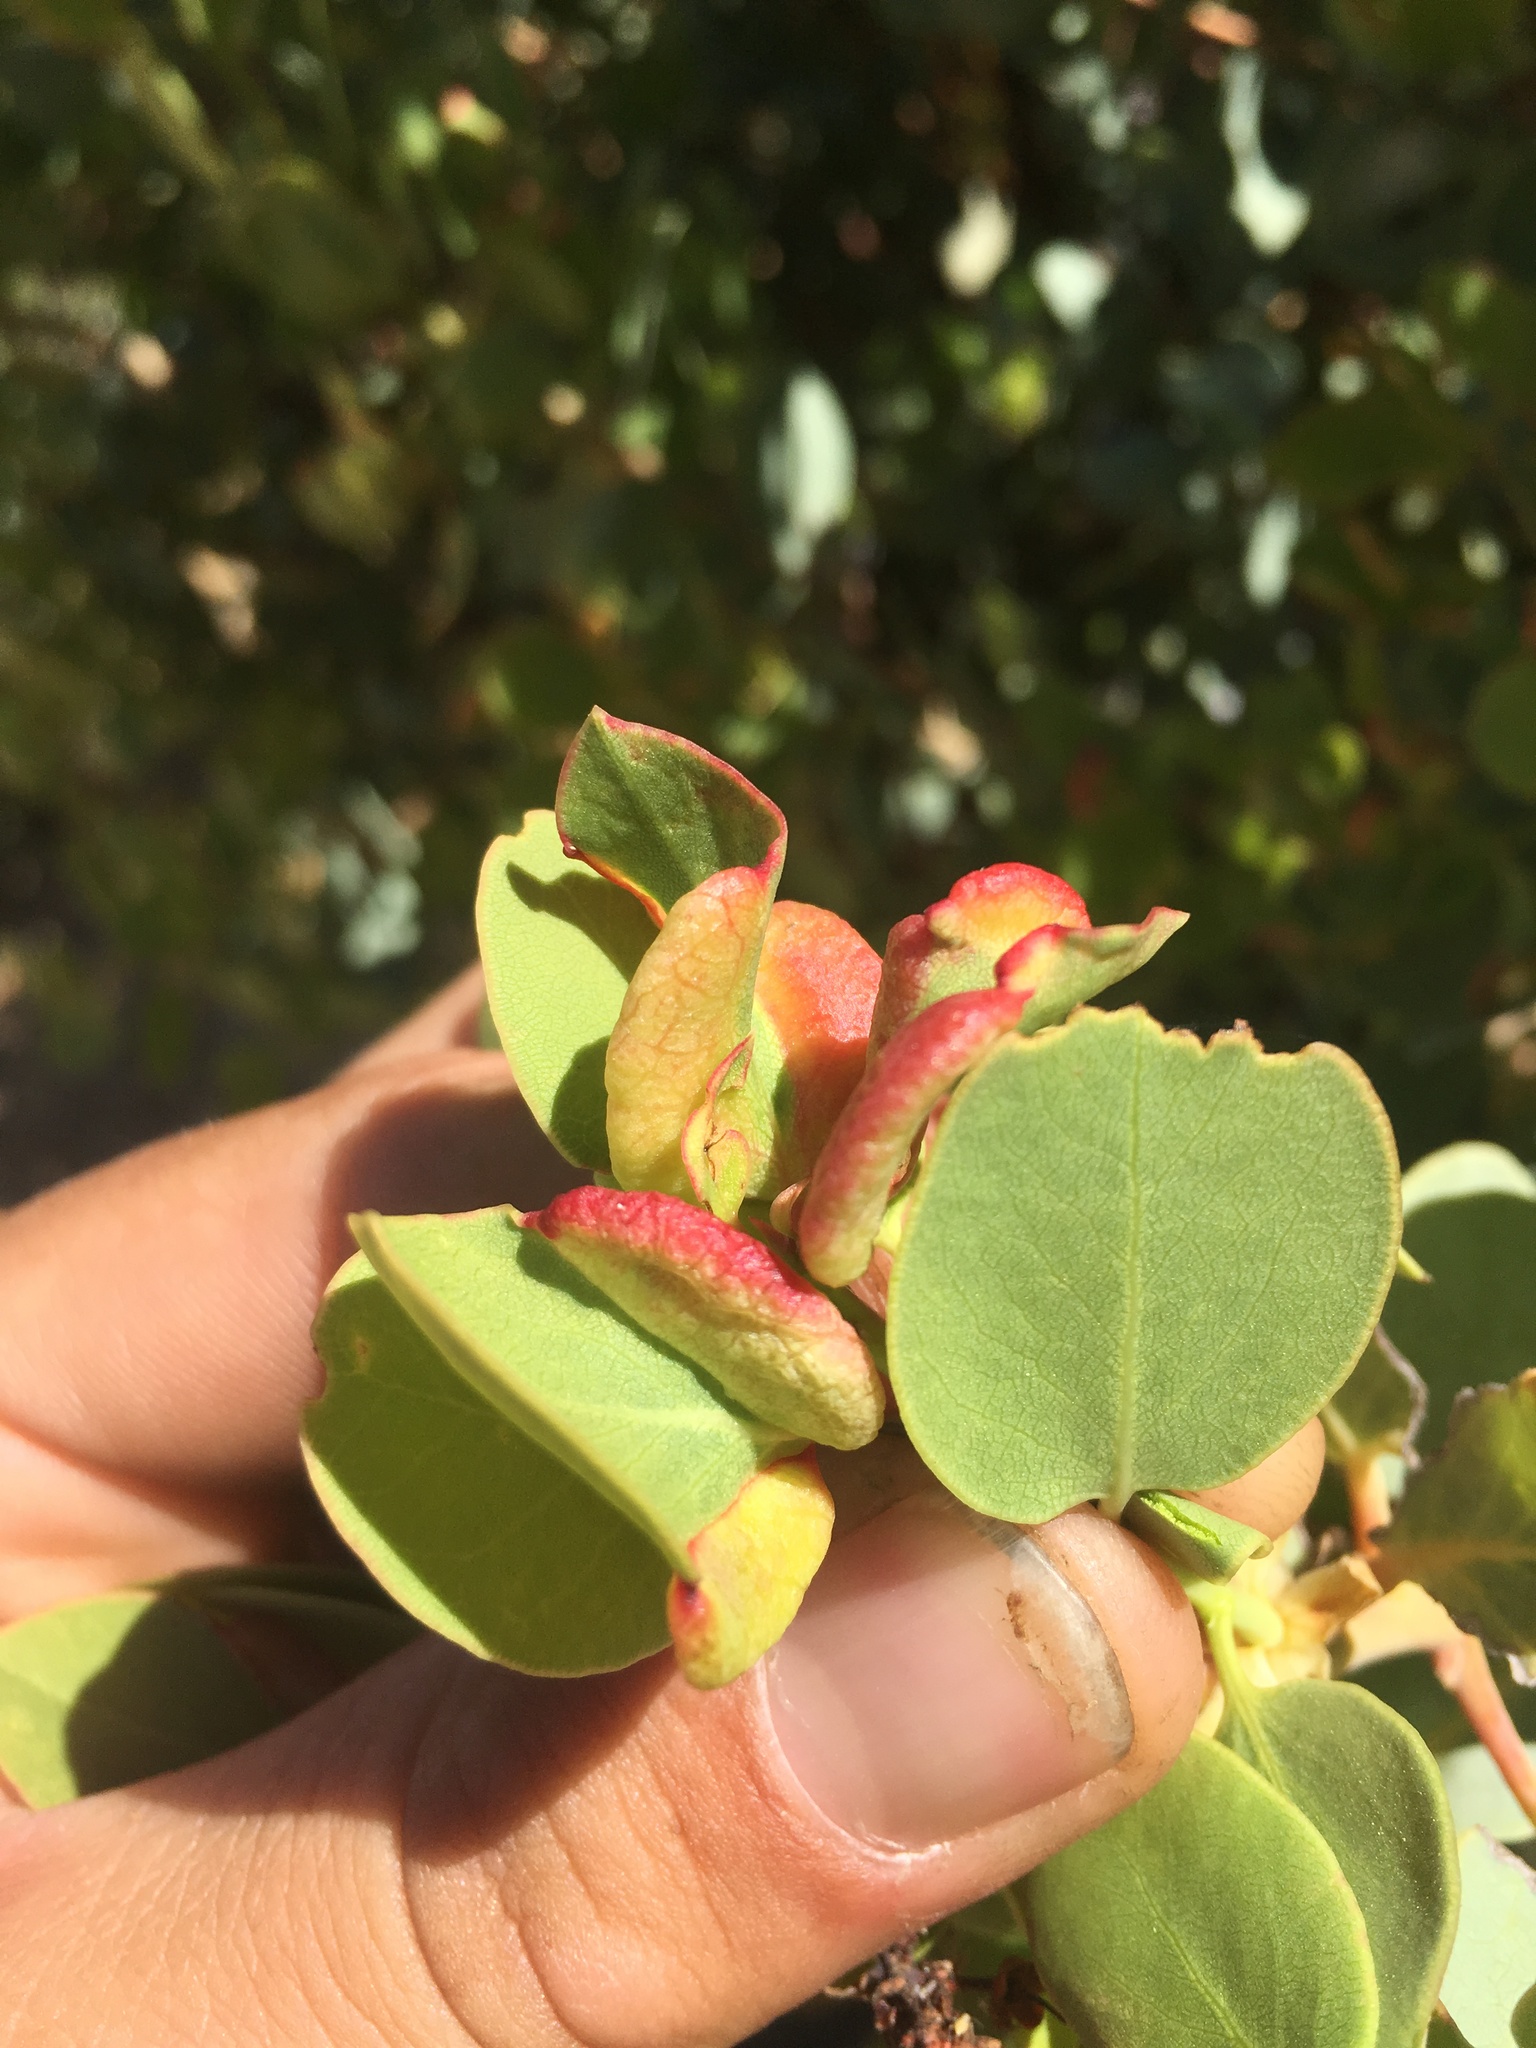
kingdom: Animalia
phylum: Arthropoda
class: Insecta
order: Hemiptera
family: Aphididae
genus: Tamalia
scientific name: Tamalia
